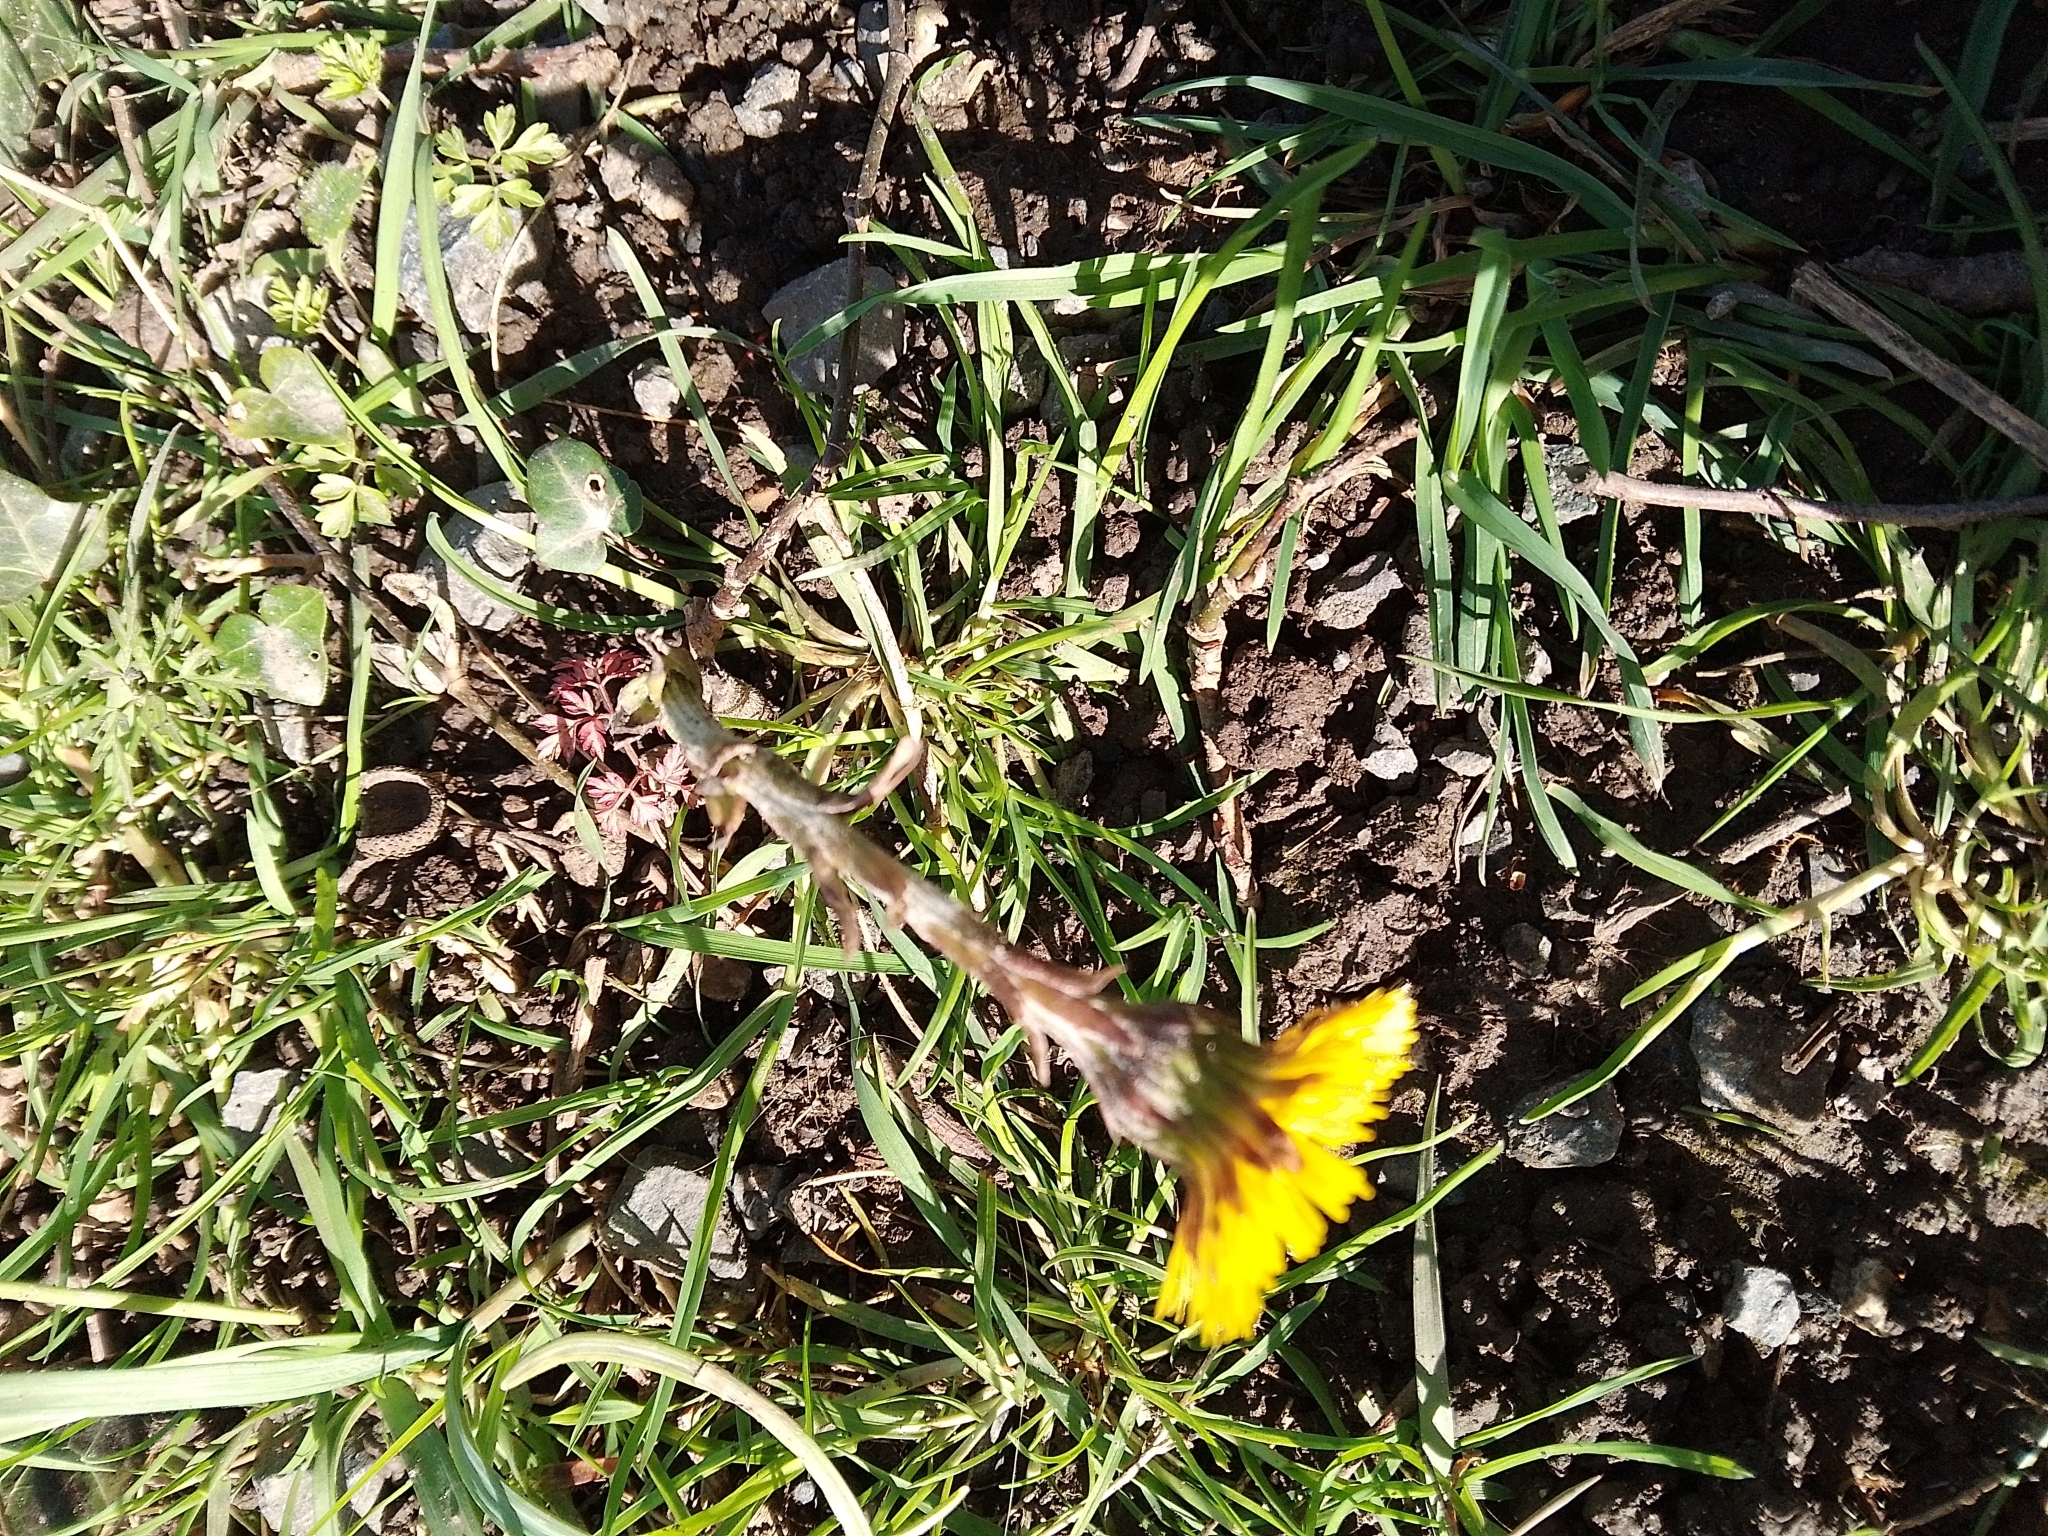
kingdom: Plantae
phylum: Tracheophyta
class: Magnoliopsida
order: Asterales
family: Asteraceae
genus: Tussilago
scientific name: Tussilago farfara
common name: Coltsfoot
